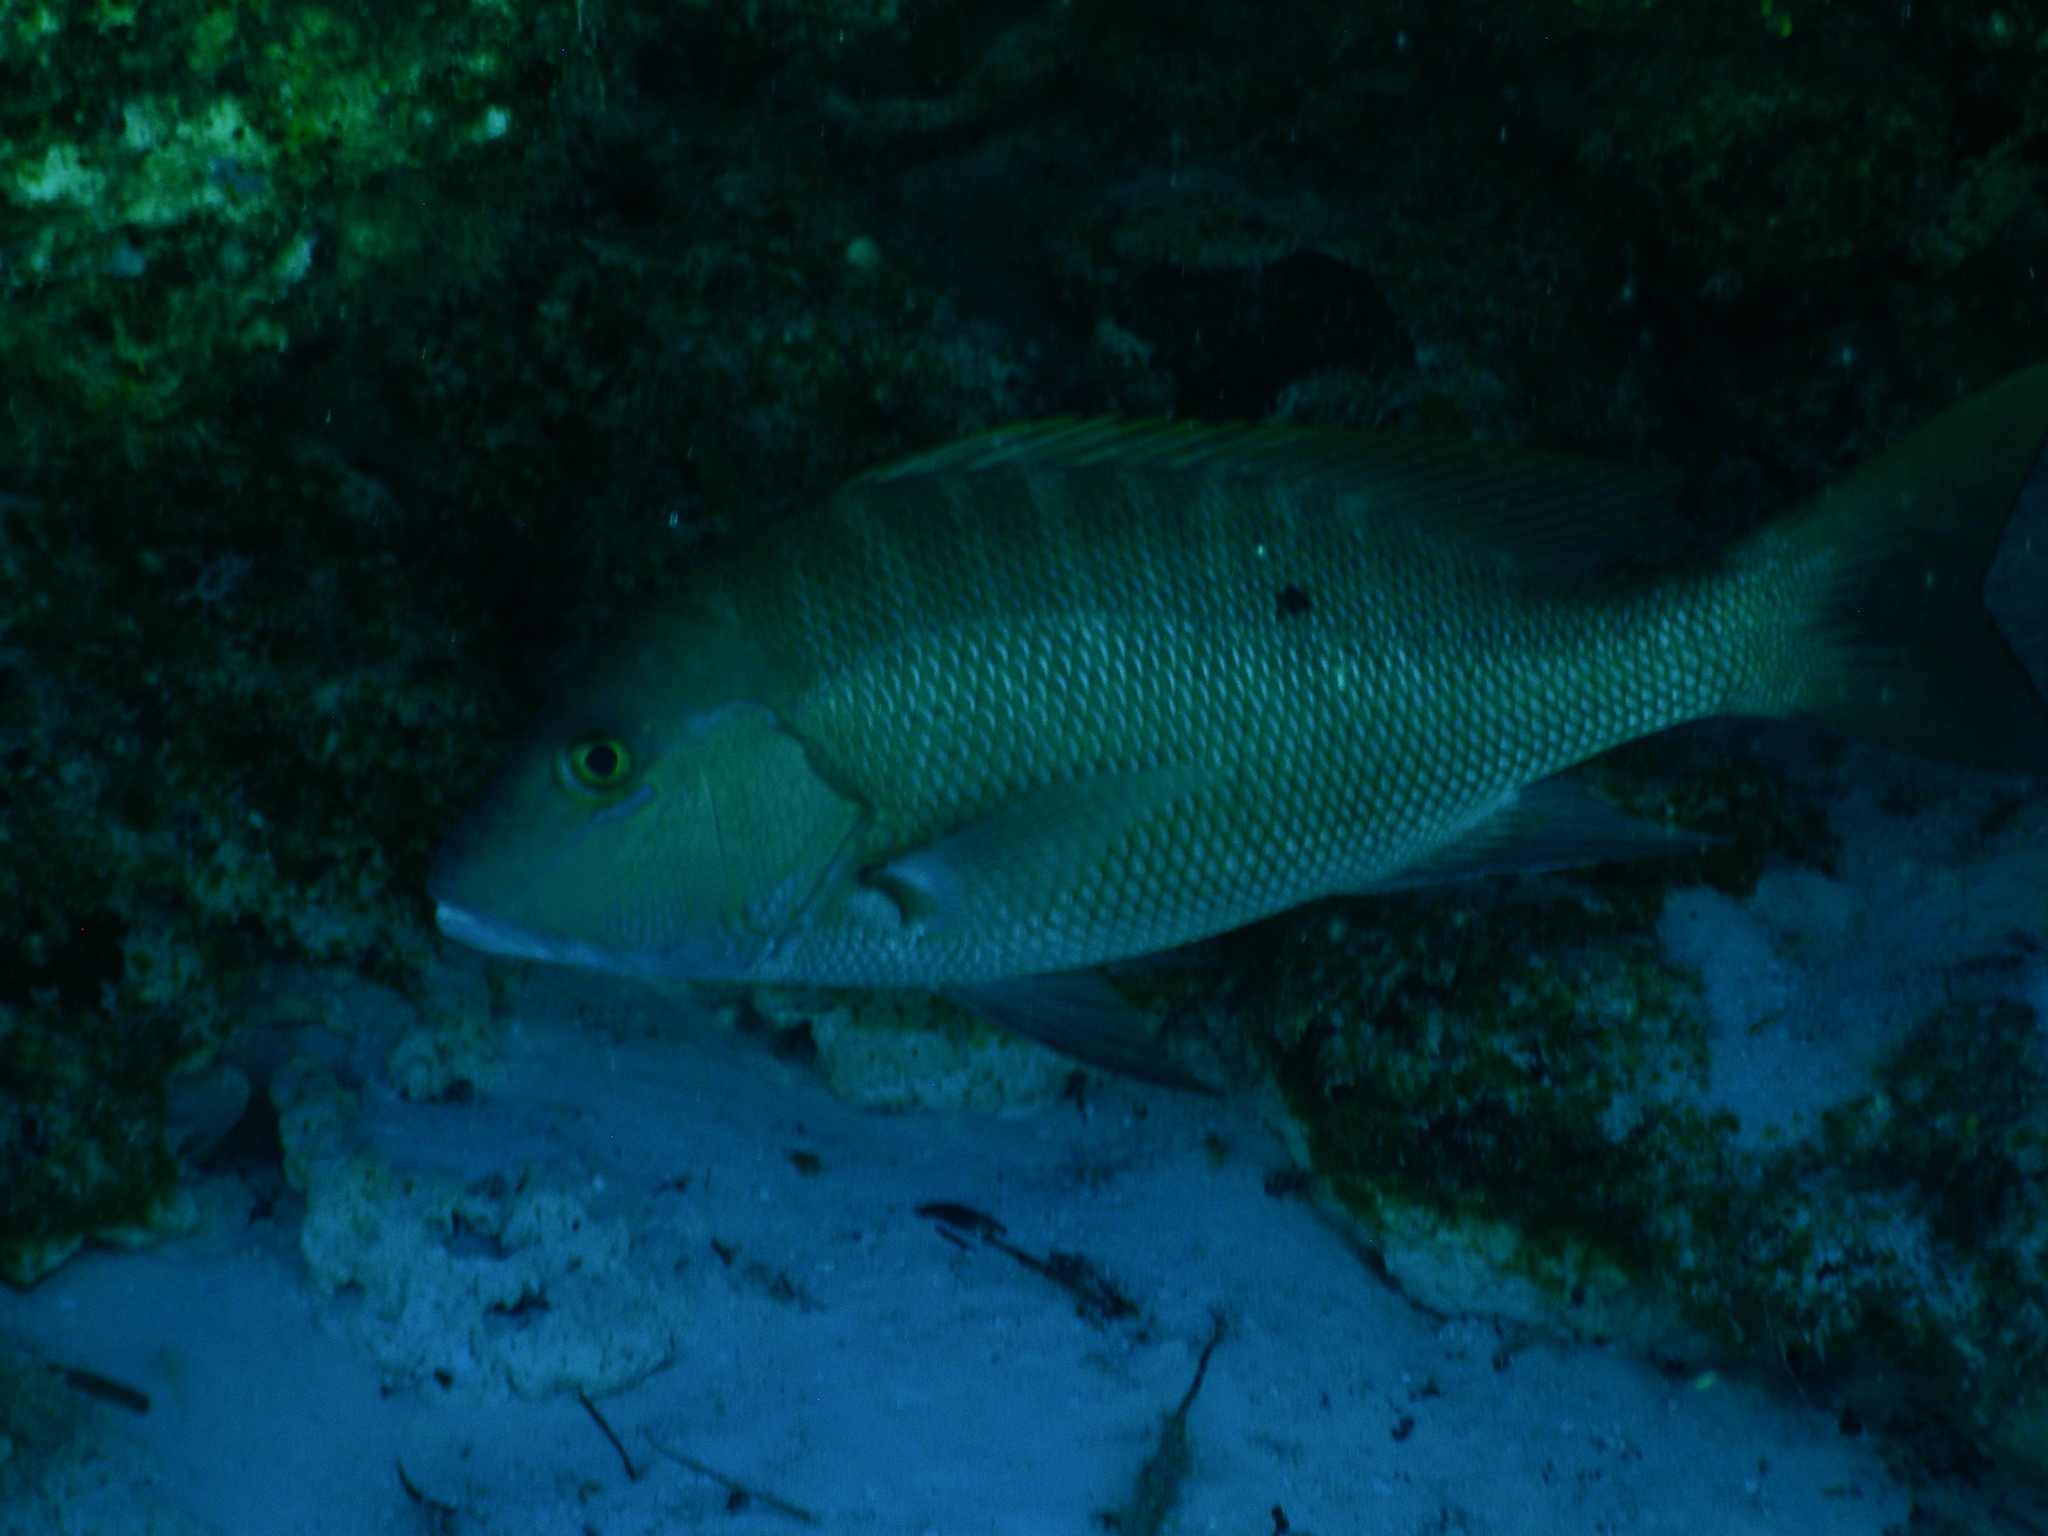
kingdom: Animalia
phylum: Chordata
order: Perciformes
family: Lutjanidae
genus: Lutjanus
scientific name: Lutjanus analis
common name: Mutton snapper
